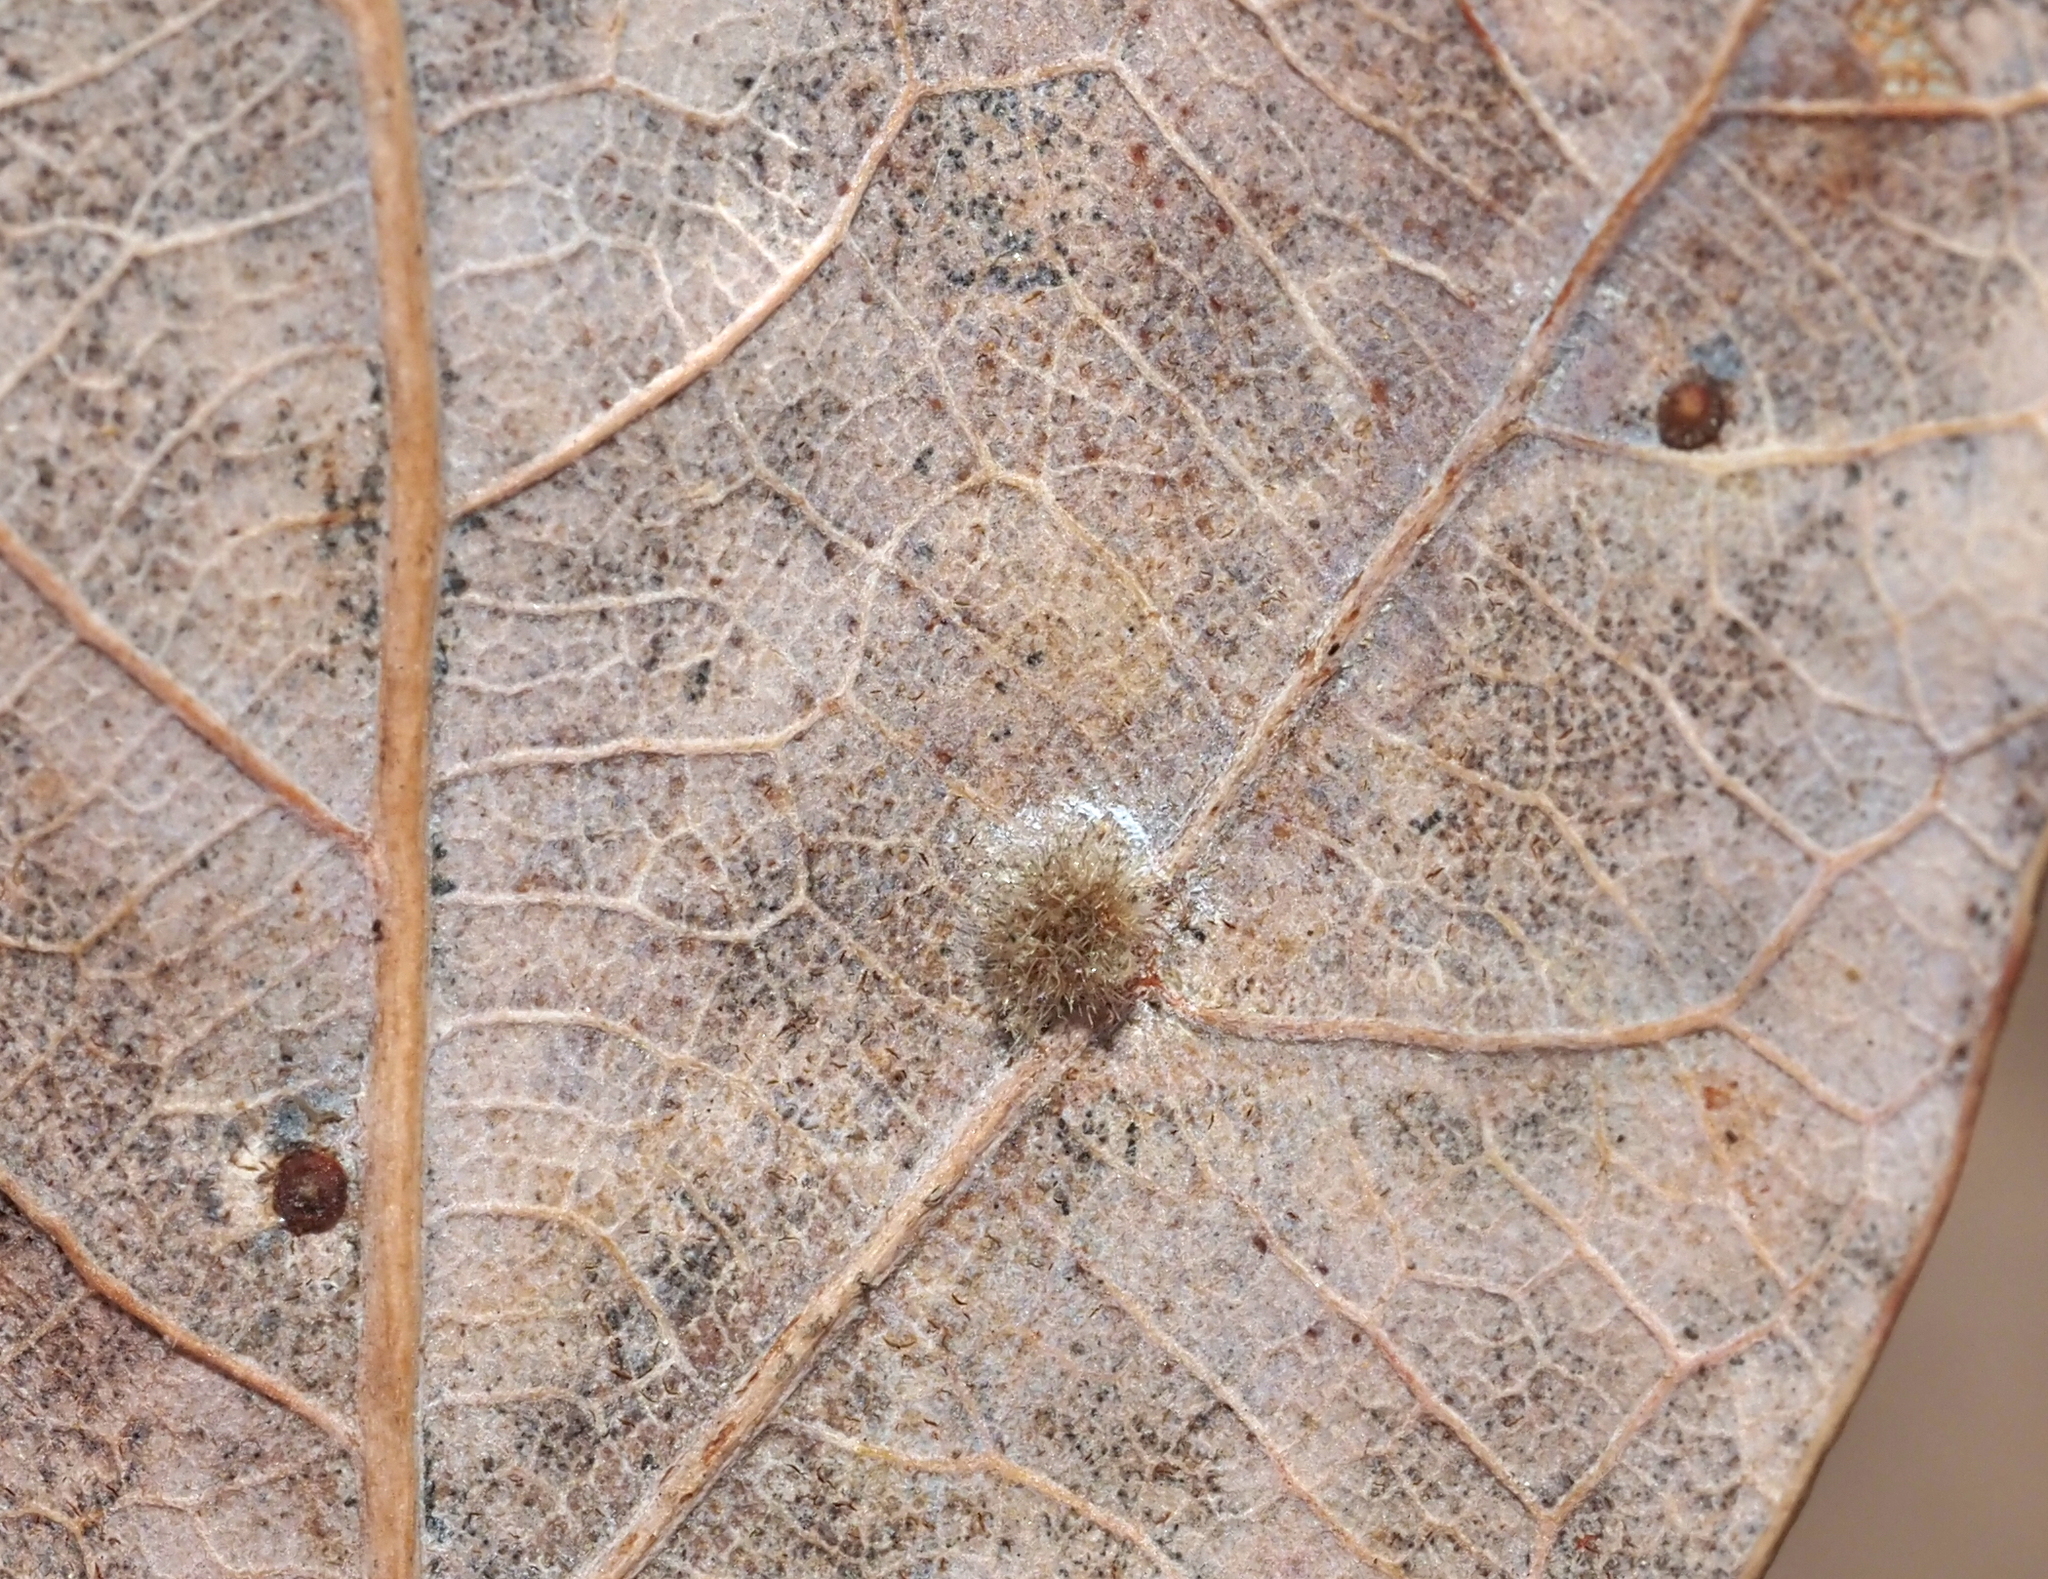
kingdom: Animalia
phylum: Arthropoda
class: Insecta
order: Hymenoptera
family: Cynipidae
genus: Philonix
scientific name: Philonix fulvicollis
